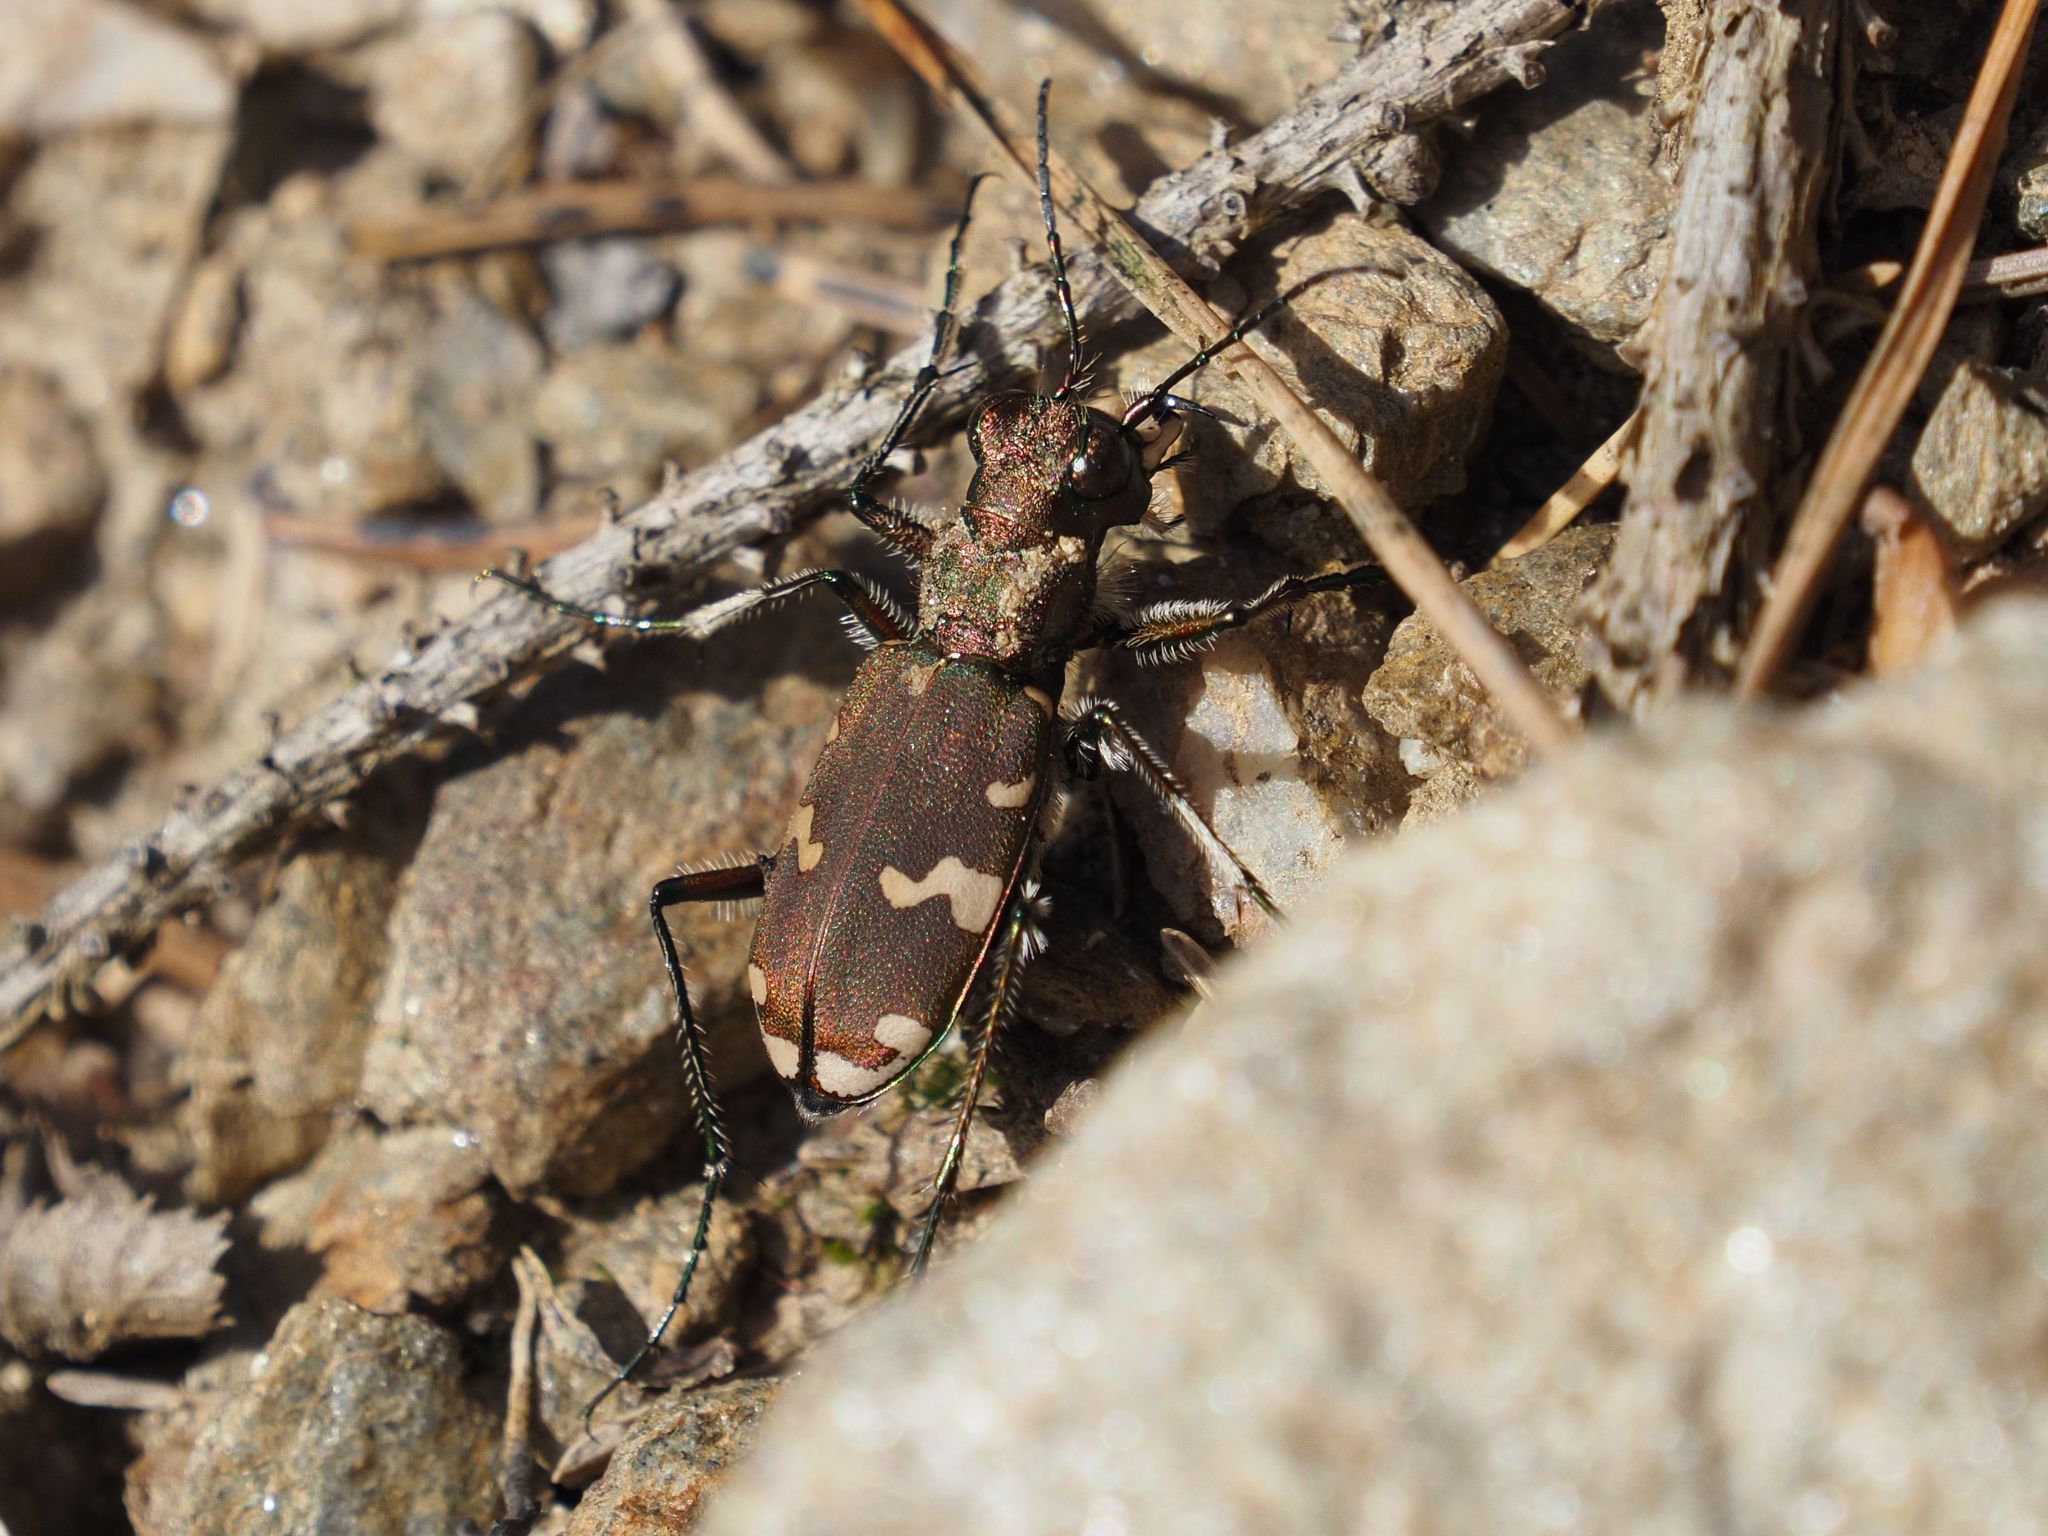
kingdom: Animalia
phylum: Arthropoda
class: Insecta
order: Coleoptera
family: Carabidae
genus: Cicindela
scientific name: Cicindela sylvicola
